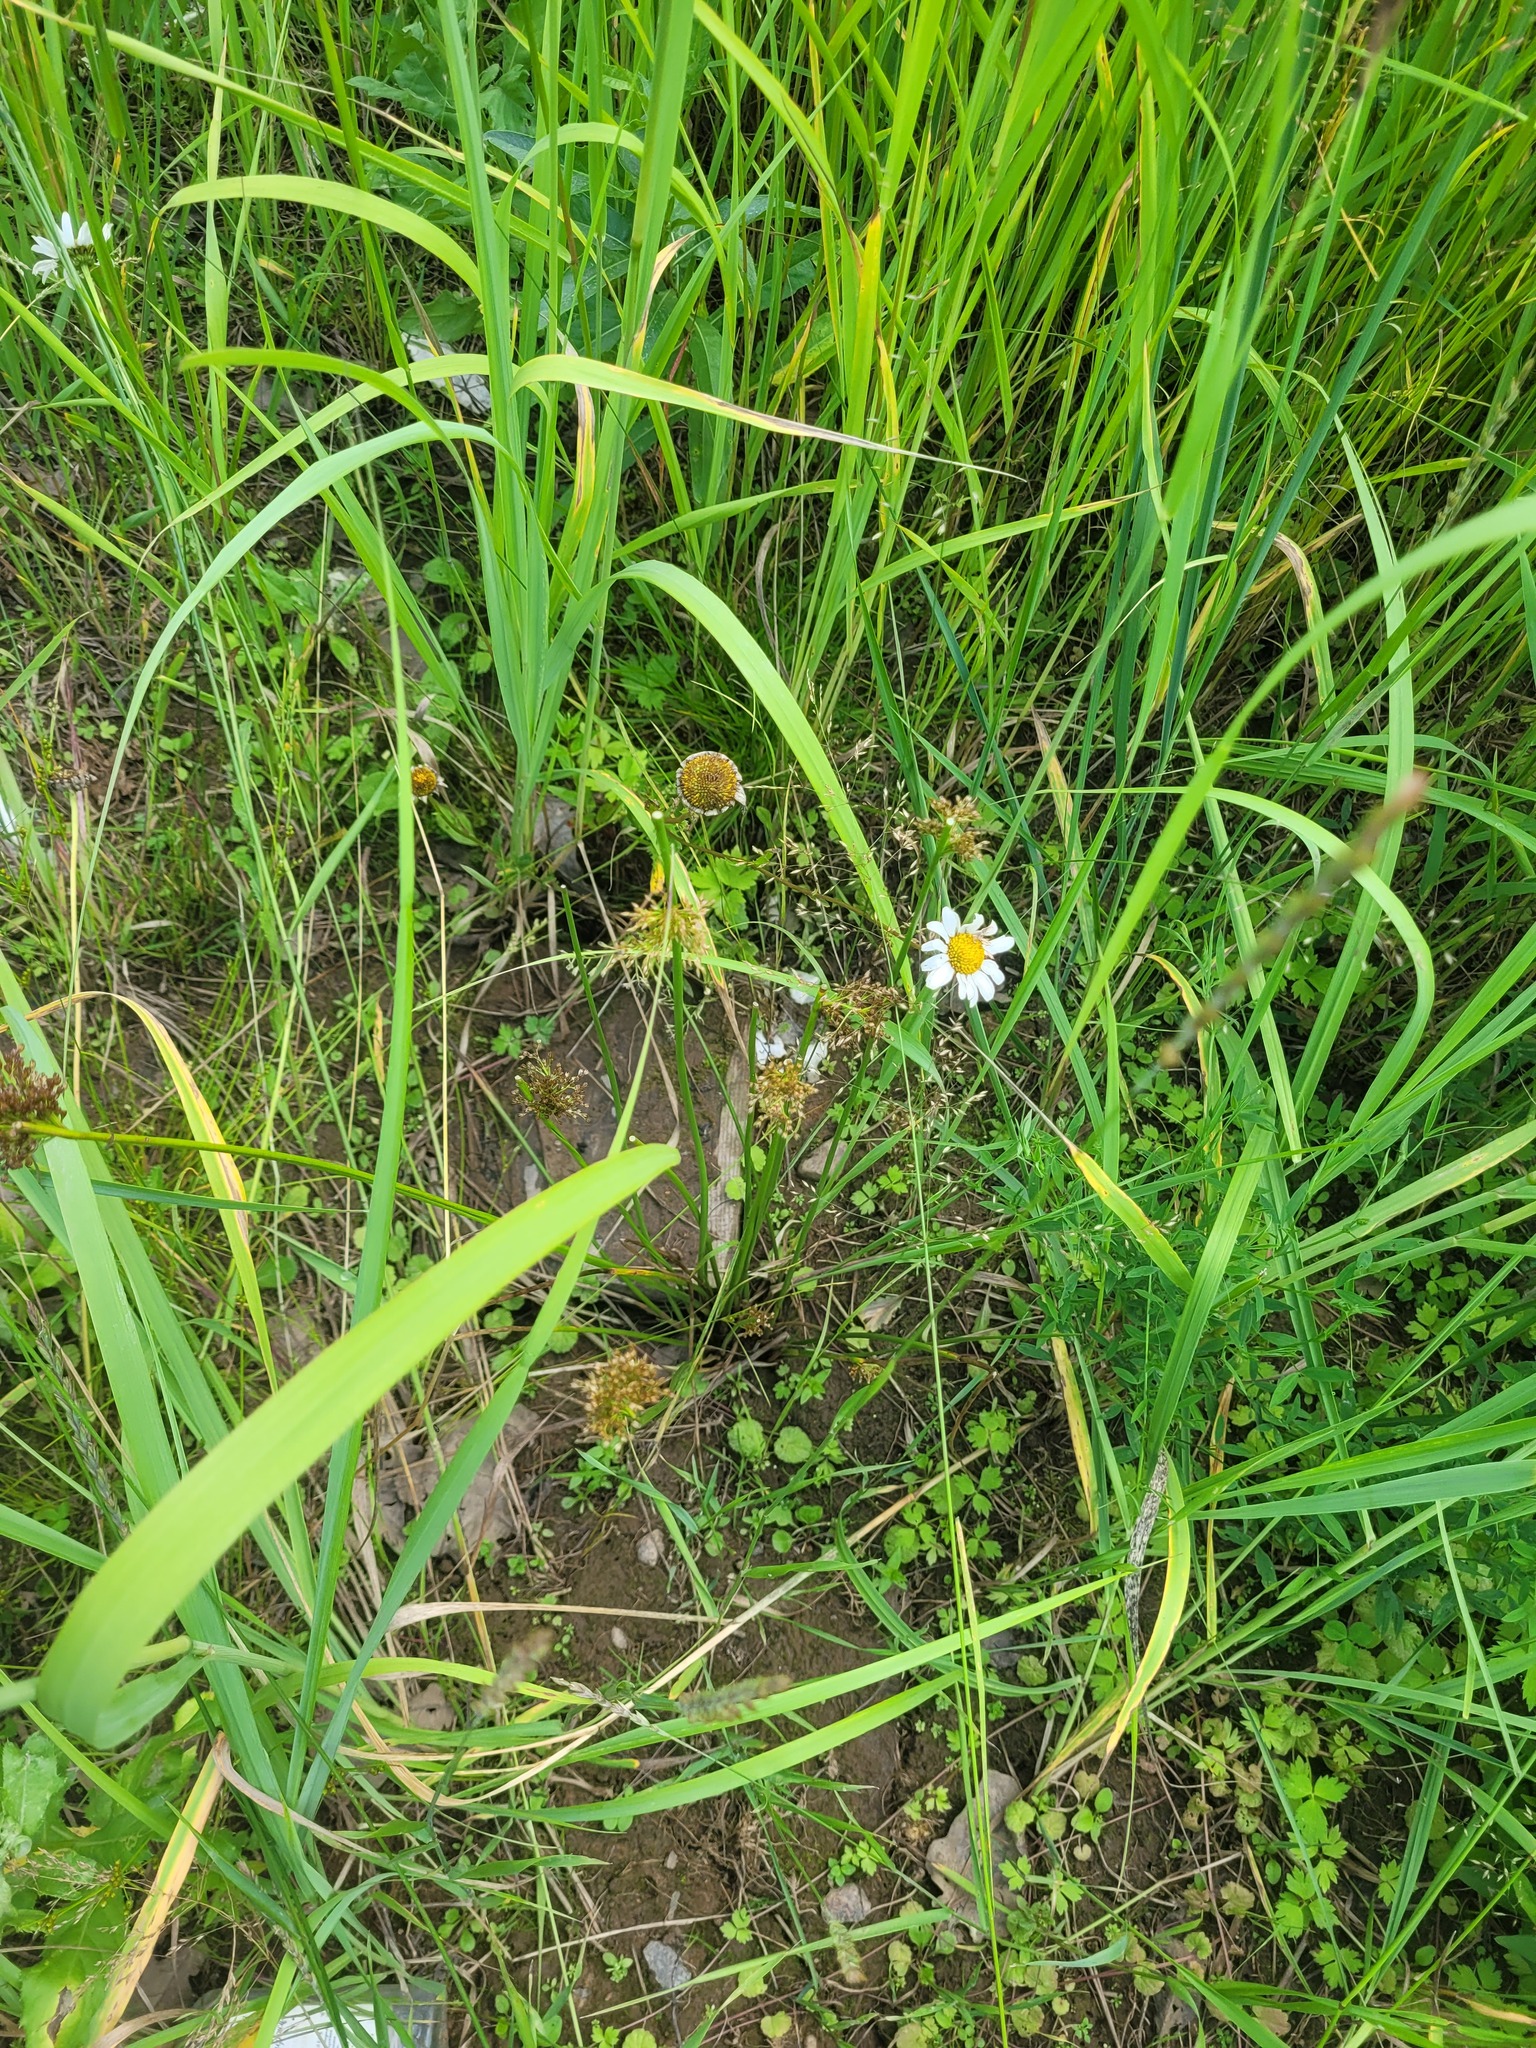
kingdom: Plantae
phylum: Tracheophyta
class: Liliopsida
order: Poales
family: Juncaceae
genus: Juncus
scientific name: Juncus effusus
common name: Soft rush
